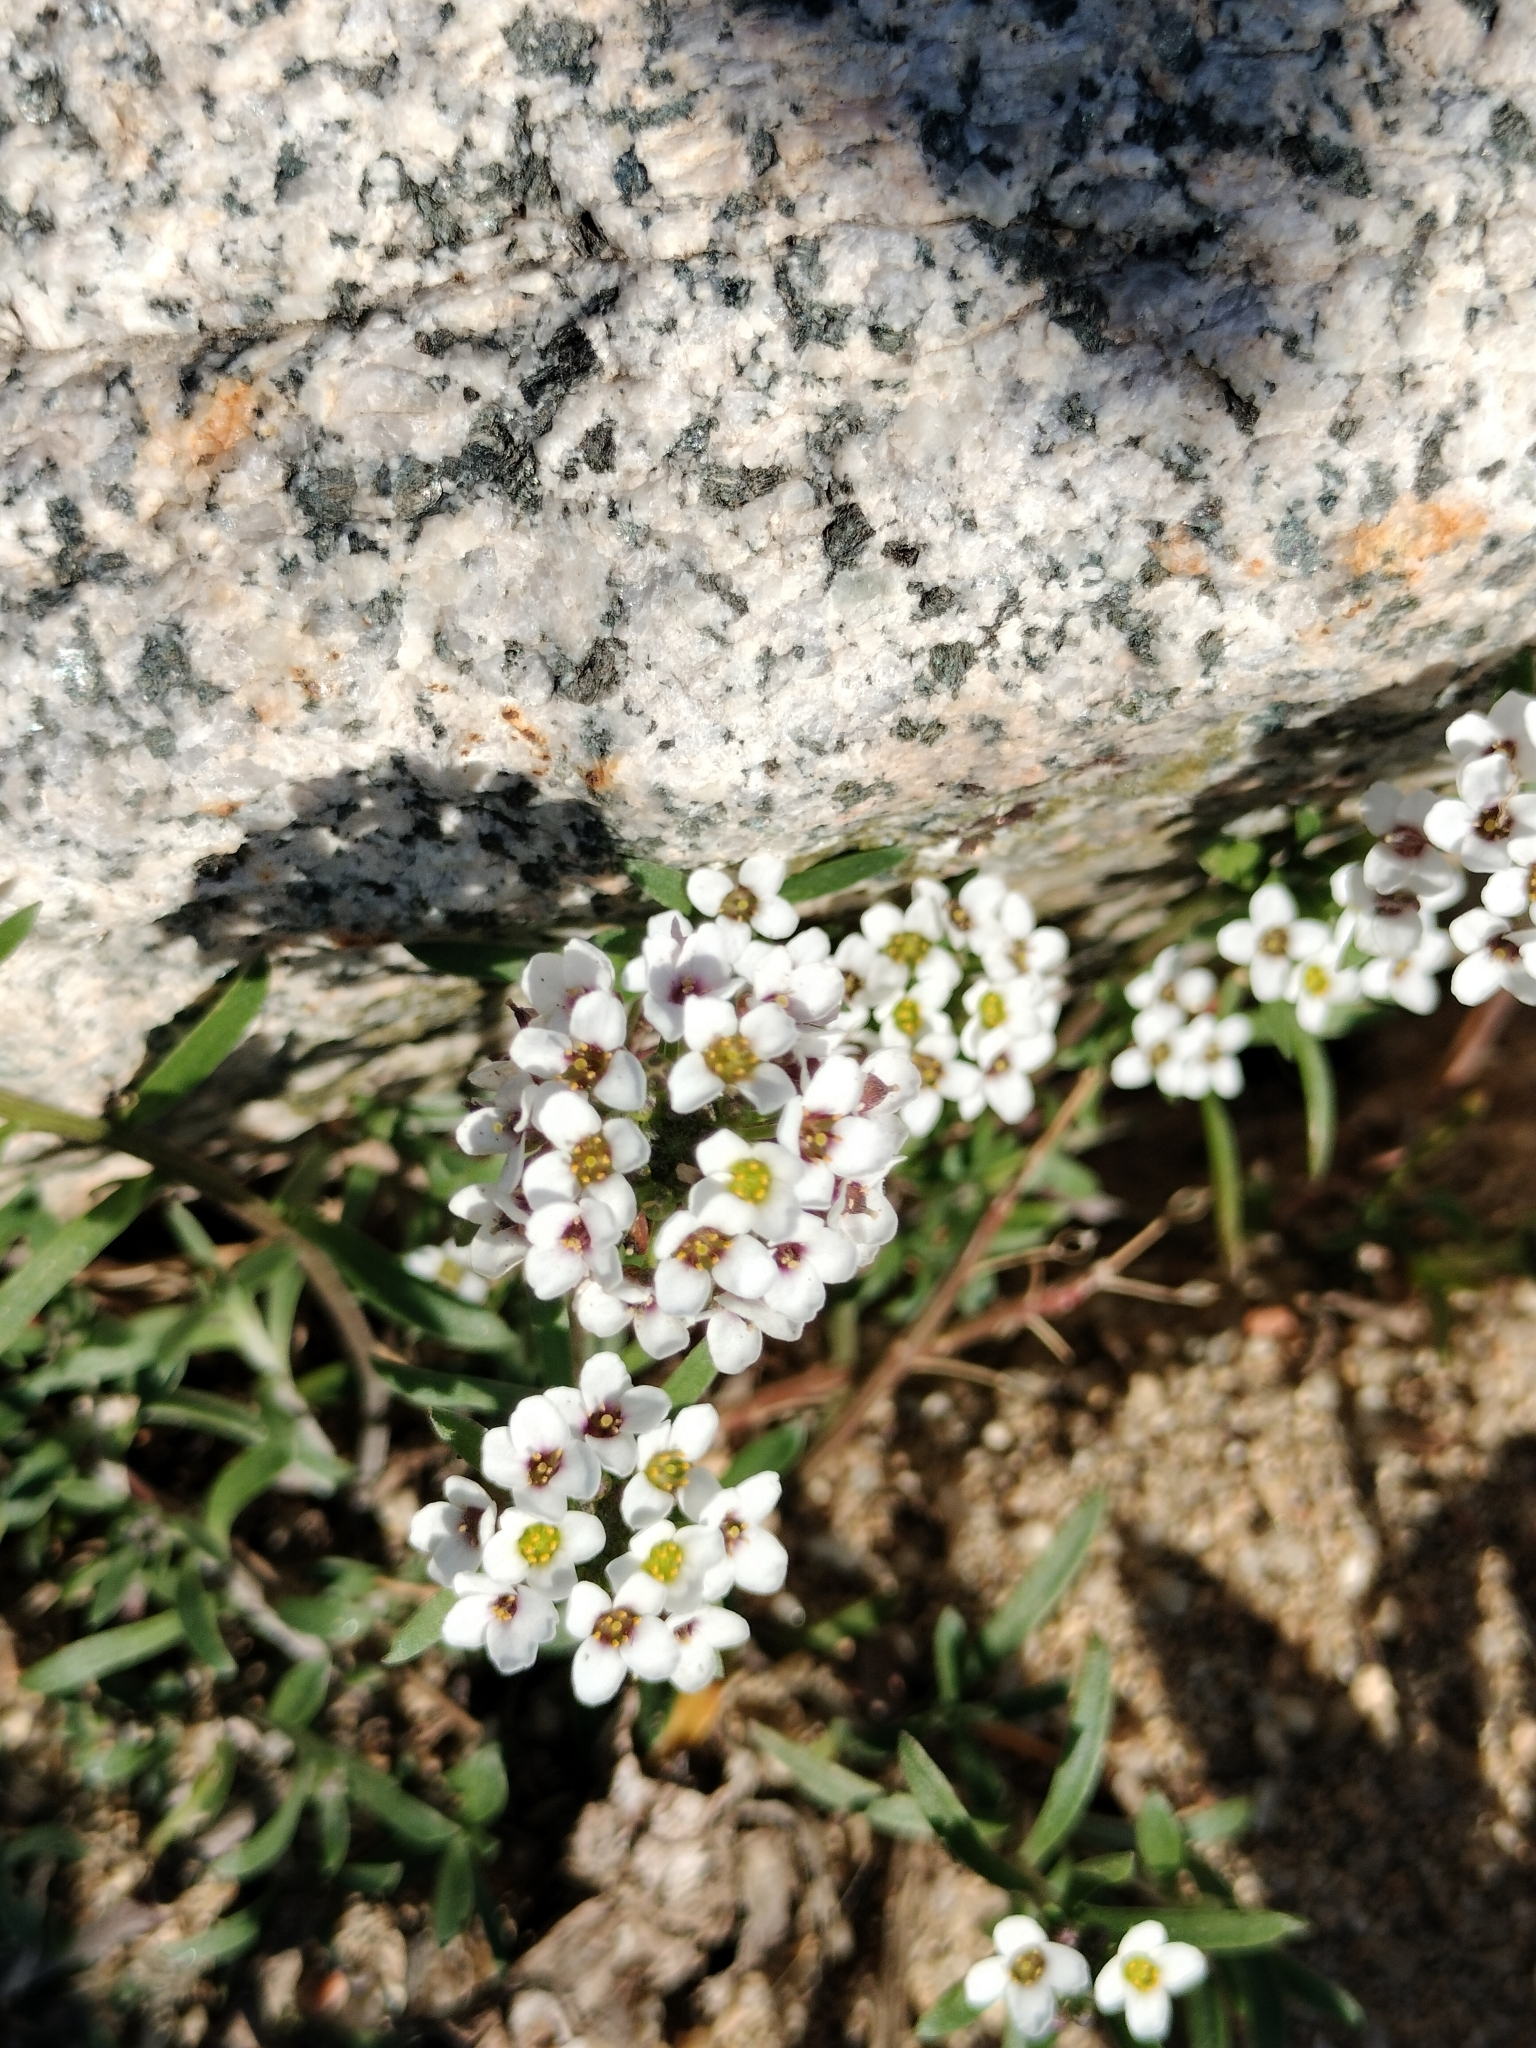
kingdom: Plantae
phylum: Tracheophyta
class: Magnoliopsida
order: Brassicales
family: Brassicaceae
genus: Lobularia
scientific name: Lobularia maritima
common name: Sweet alison
